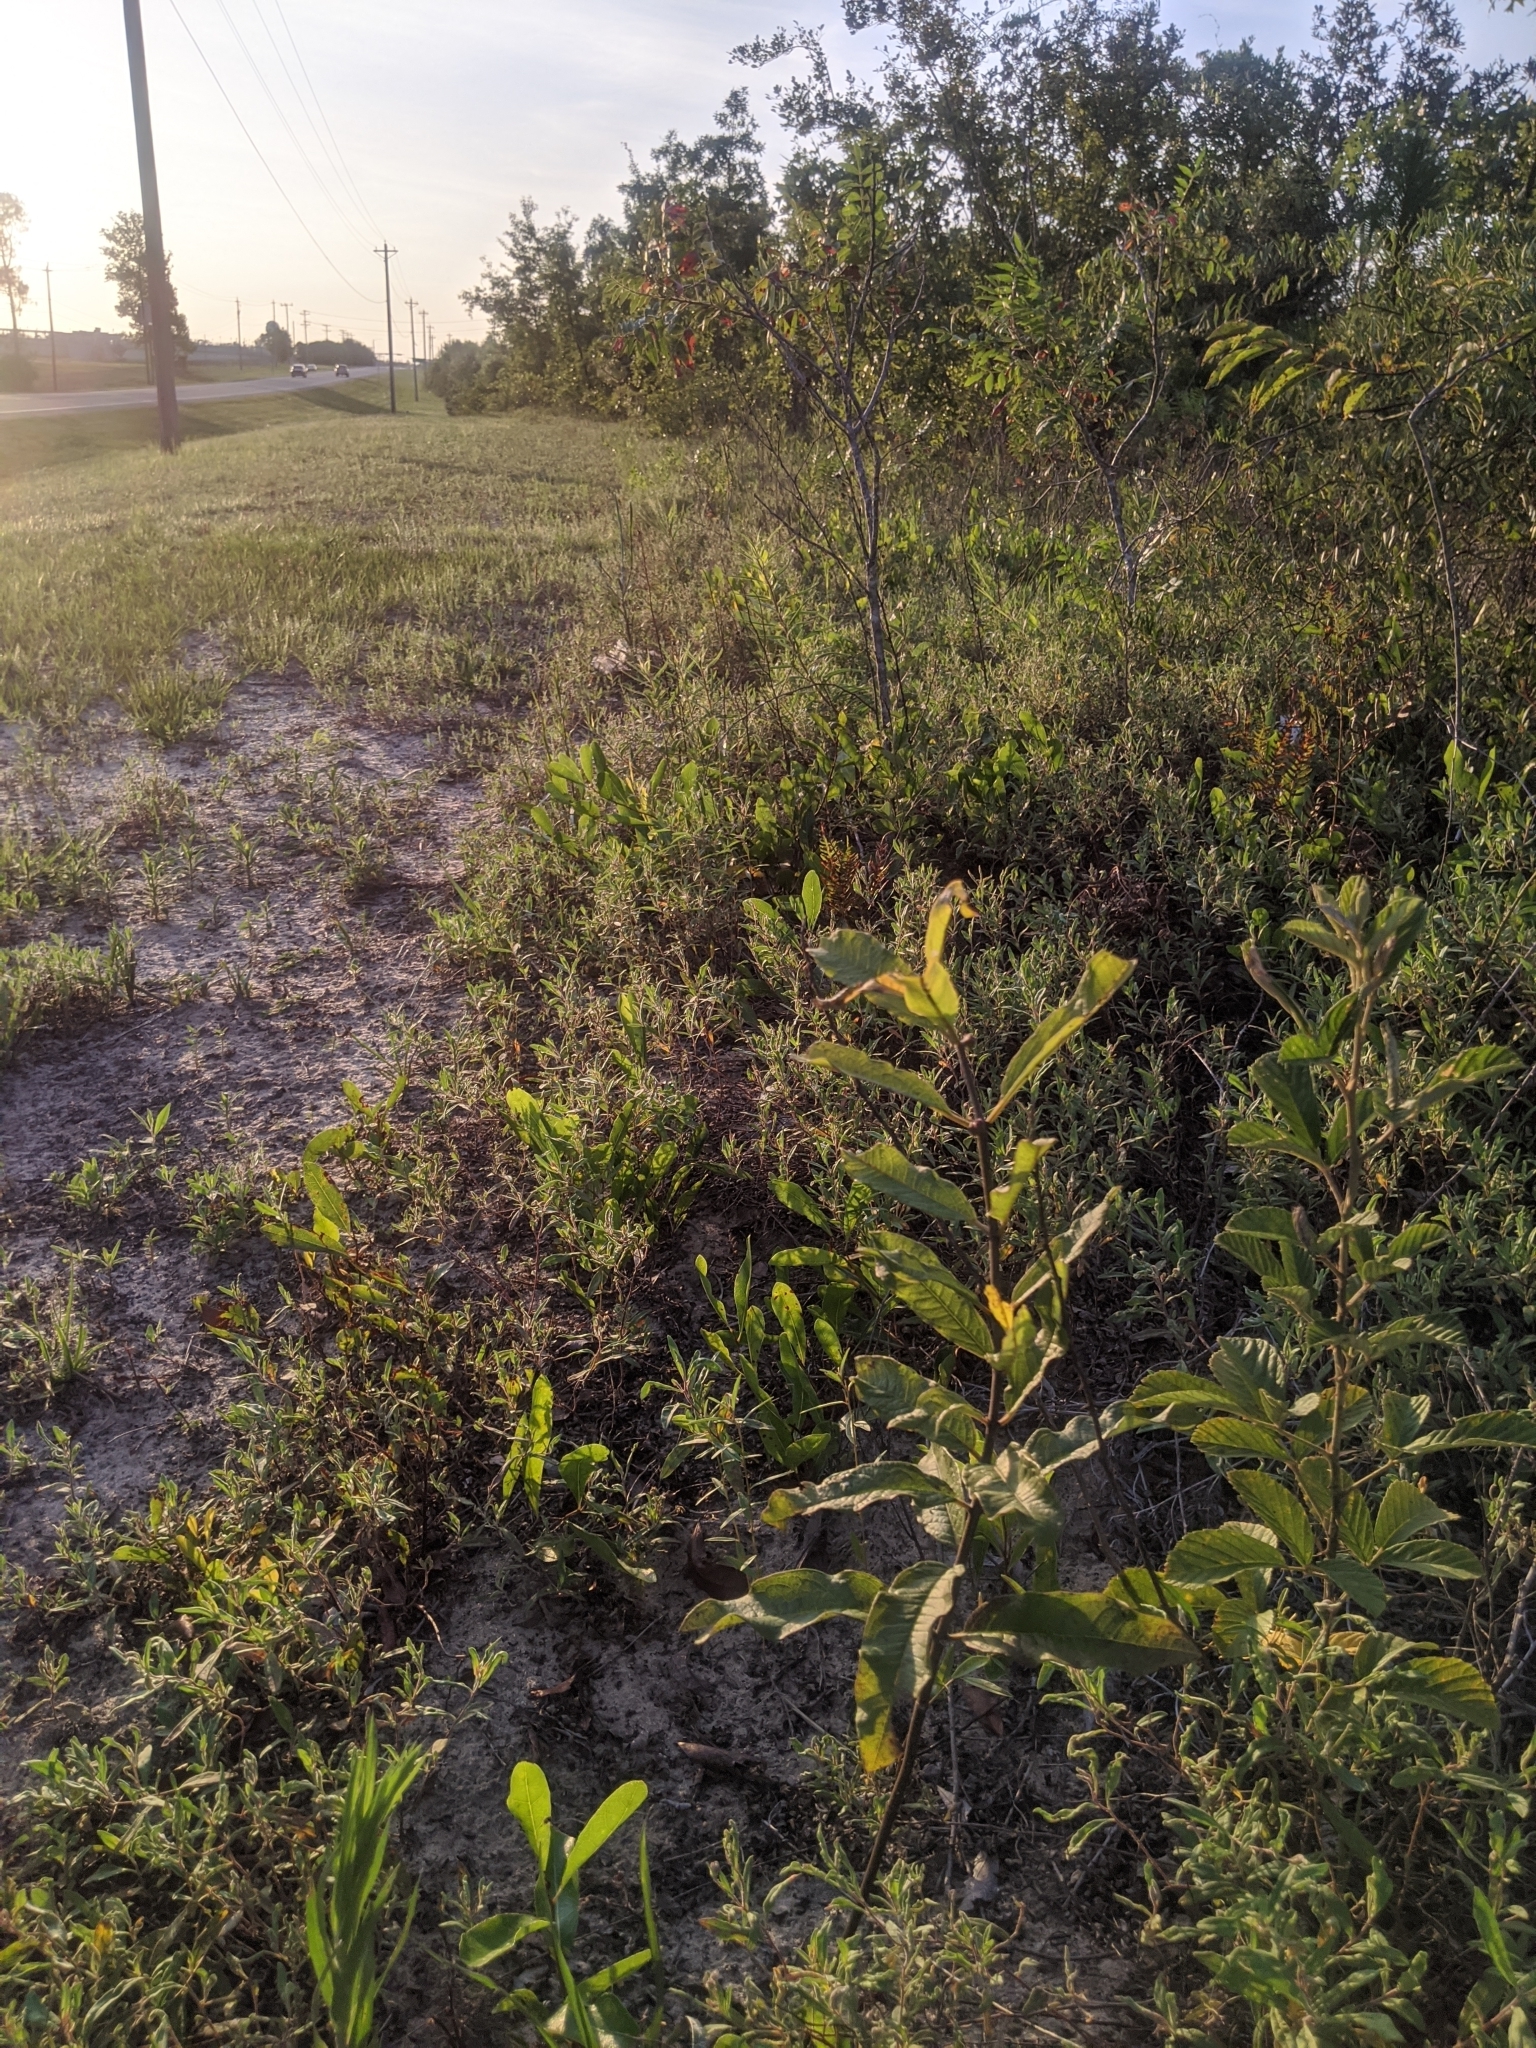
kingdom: Plantae
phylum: Tracheophyta
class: Magnoliopsida
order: Gentianales
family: Apocynaceae
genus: Asclepias
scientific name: Asclepias tomentosa
